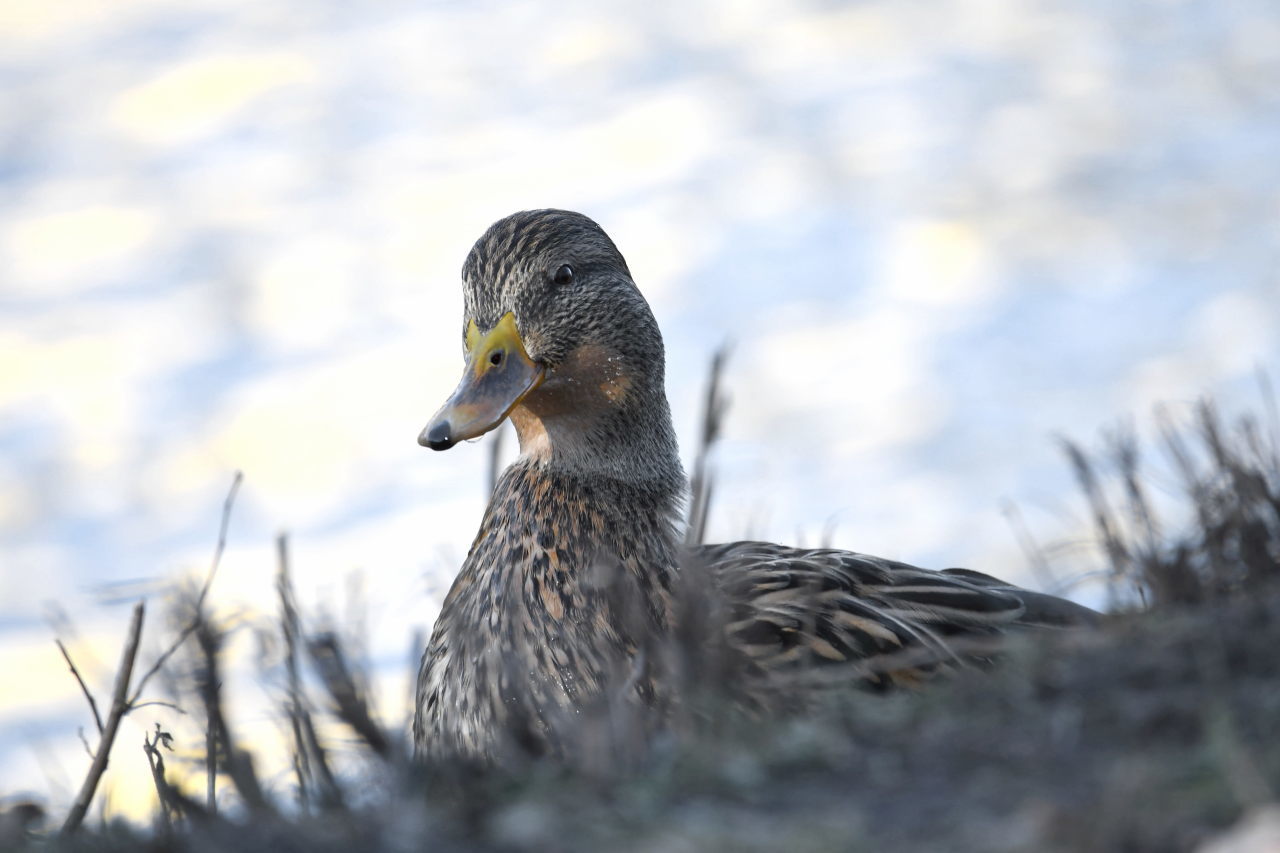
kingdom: Animalia
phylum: Chordata
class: Aves
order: Anseriformes
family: Anatidae
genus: Anas
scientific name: Anas platyrhynchos
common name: Mallard
